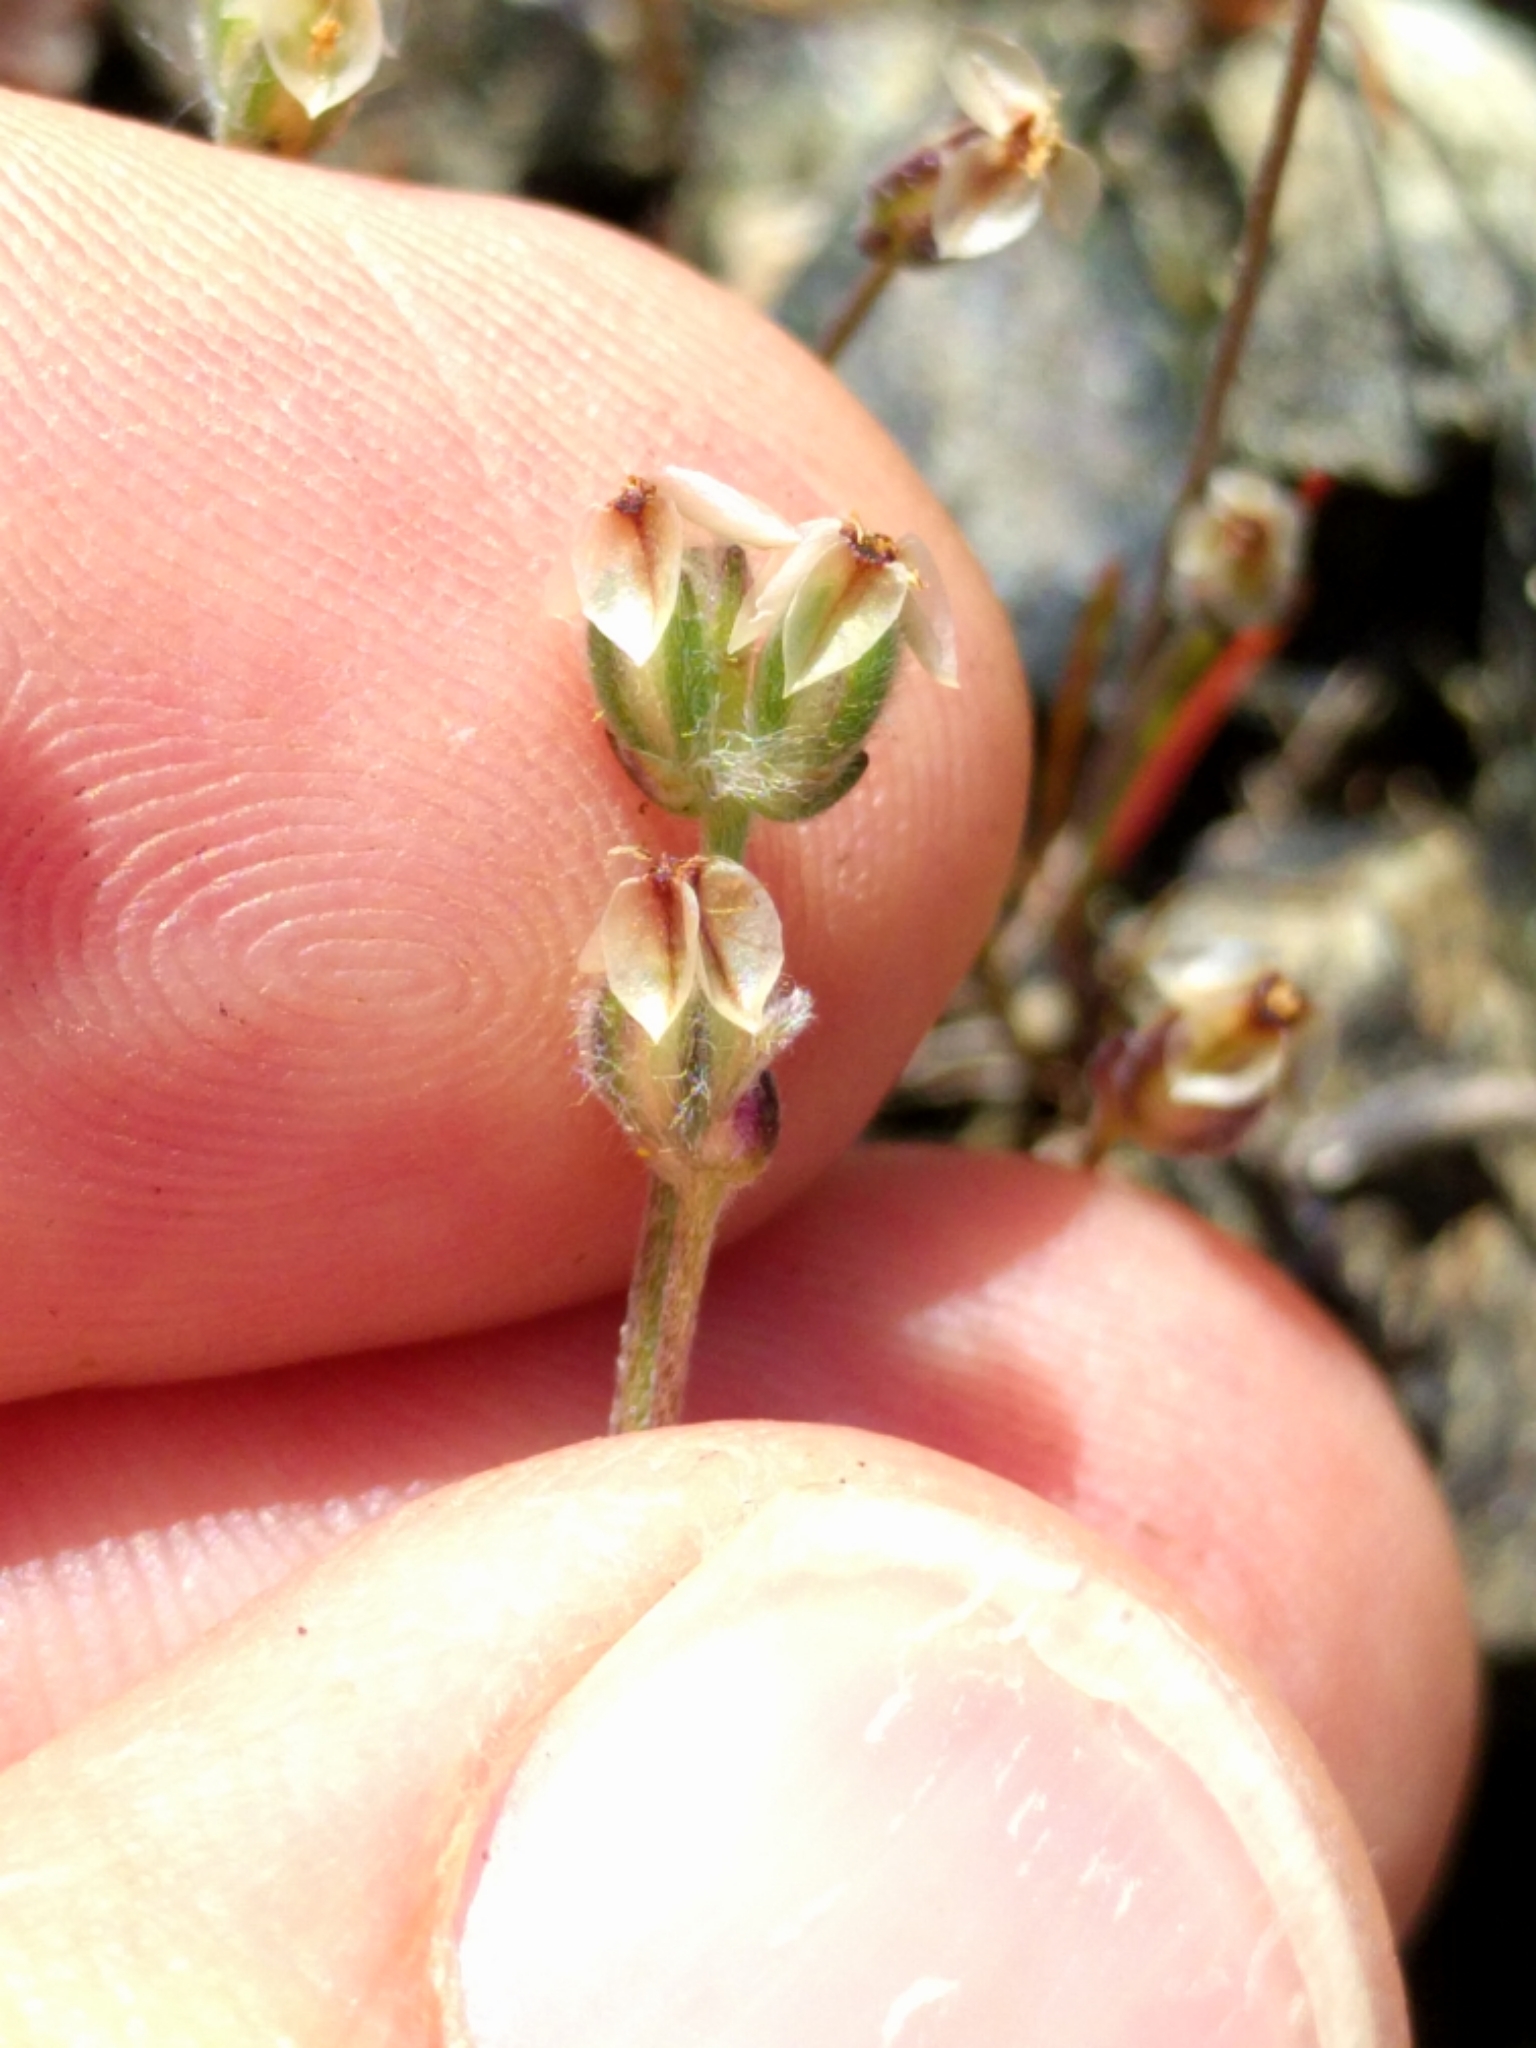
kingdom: Plantae
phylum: Tracheophyta
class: Magnoliopsida
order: Lamiales
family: Plantaginaceae
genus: Plantago
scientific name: Plantago erecta
